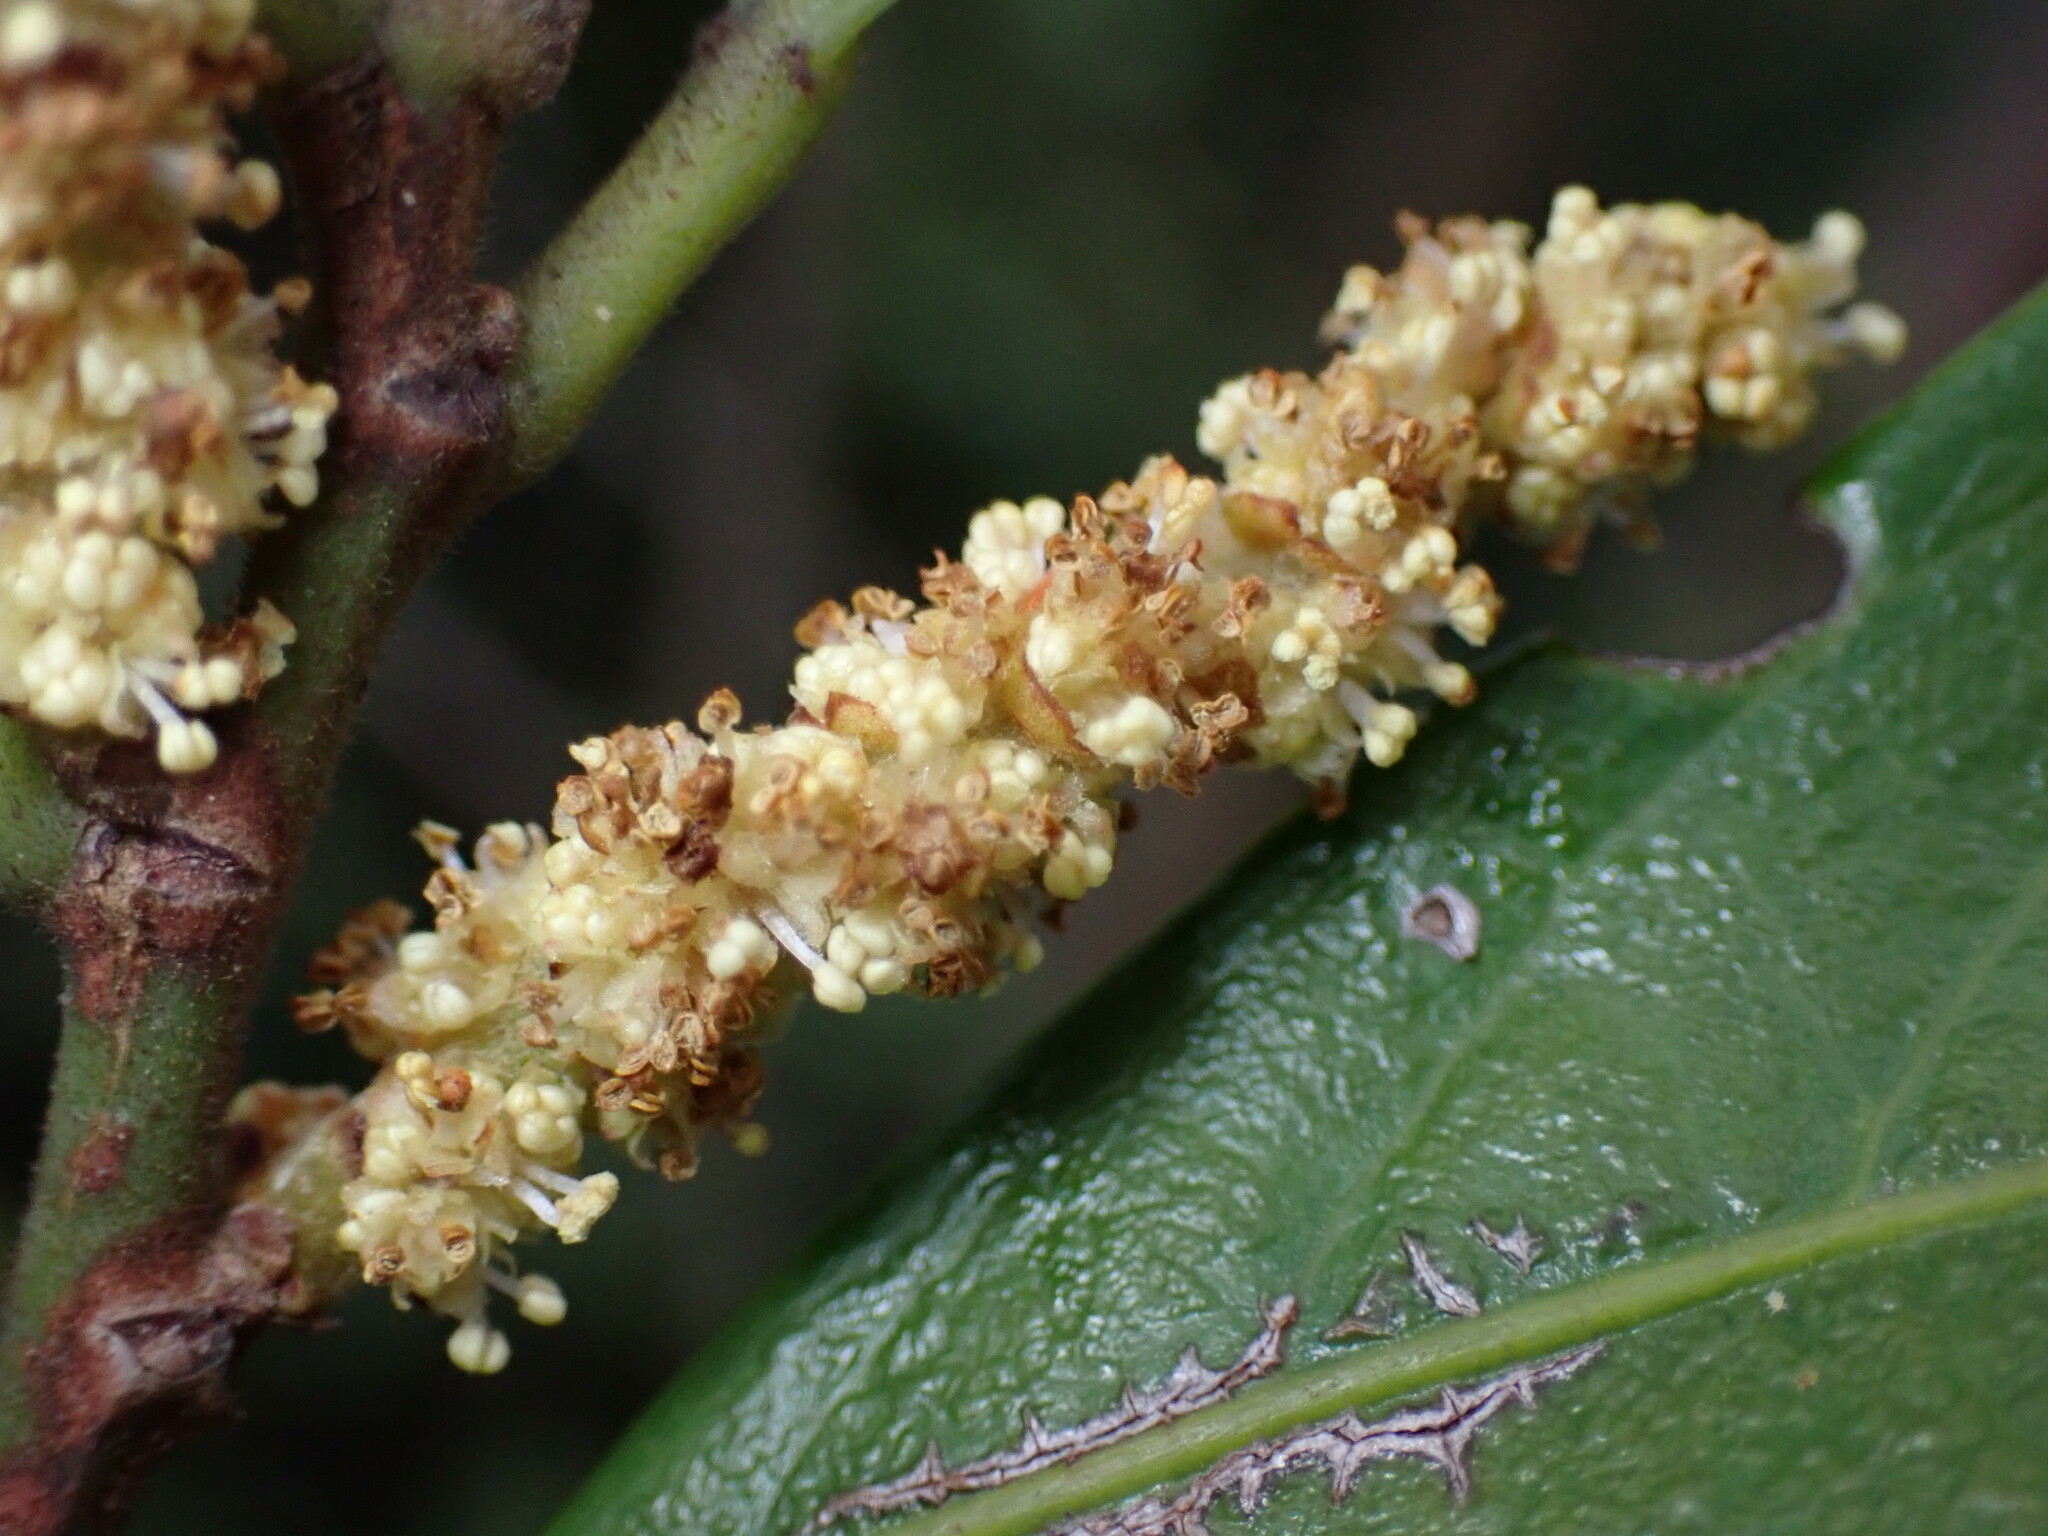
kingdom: Plantae
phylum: Tracheophyta
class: Magnoliopsida
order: Malpighiales
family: Phyllanthaceae
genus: Aporosa
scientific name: Aporosa octandra
